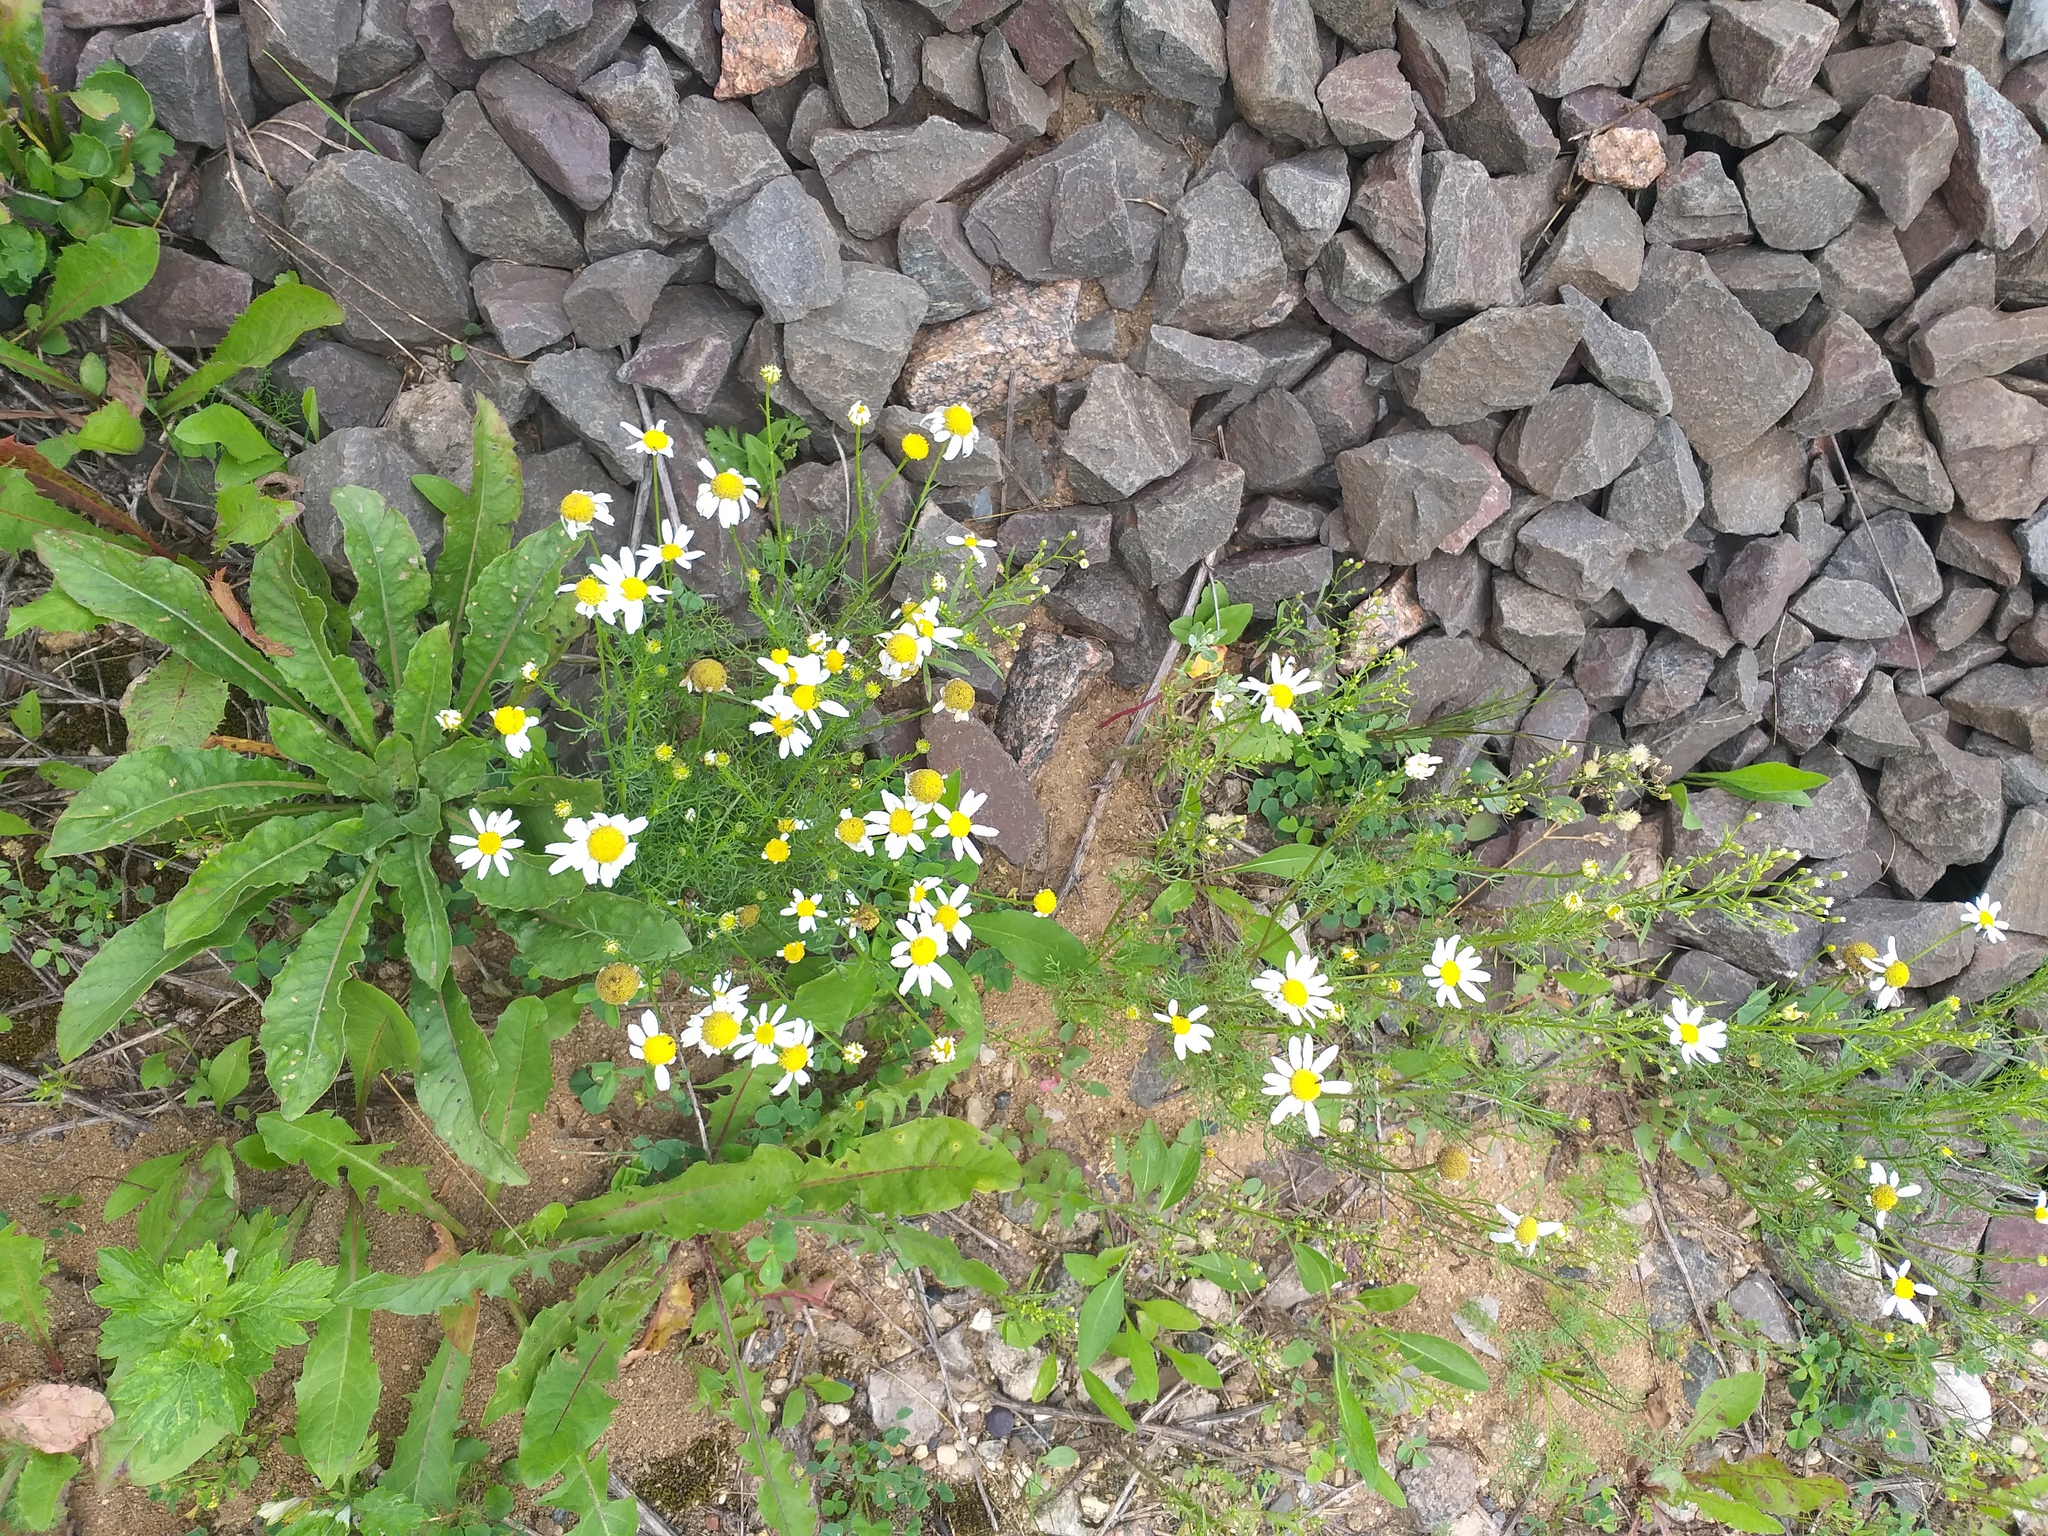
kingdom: Plantae
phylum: Tracheophyta
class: Magnoliopsida
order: Asterales
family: Asteraceae
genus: Tripleurospermum
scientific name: Tripleurospermum inodorum
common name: Scentless mayweed
